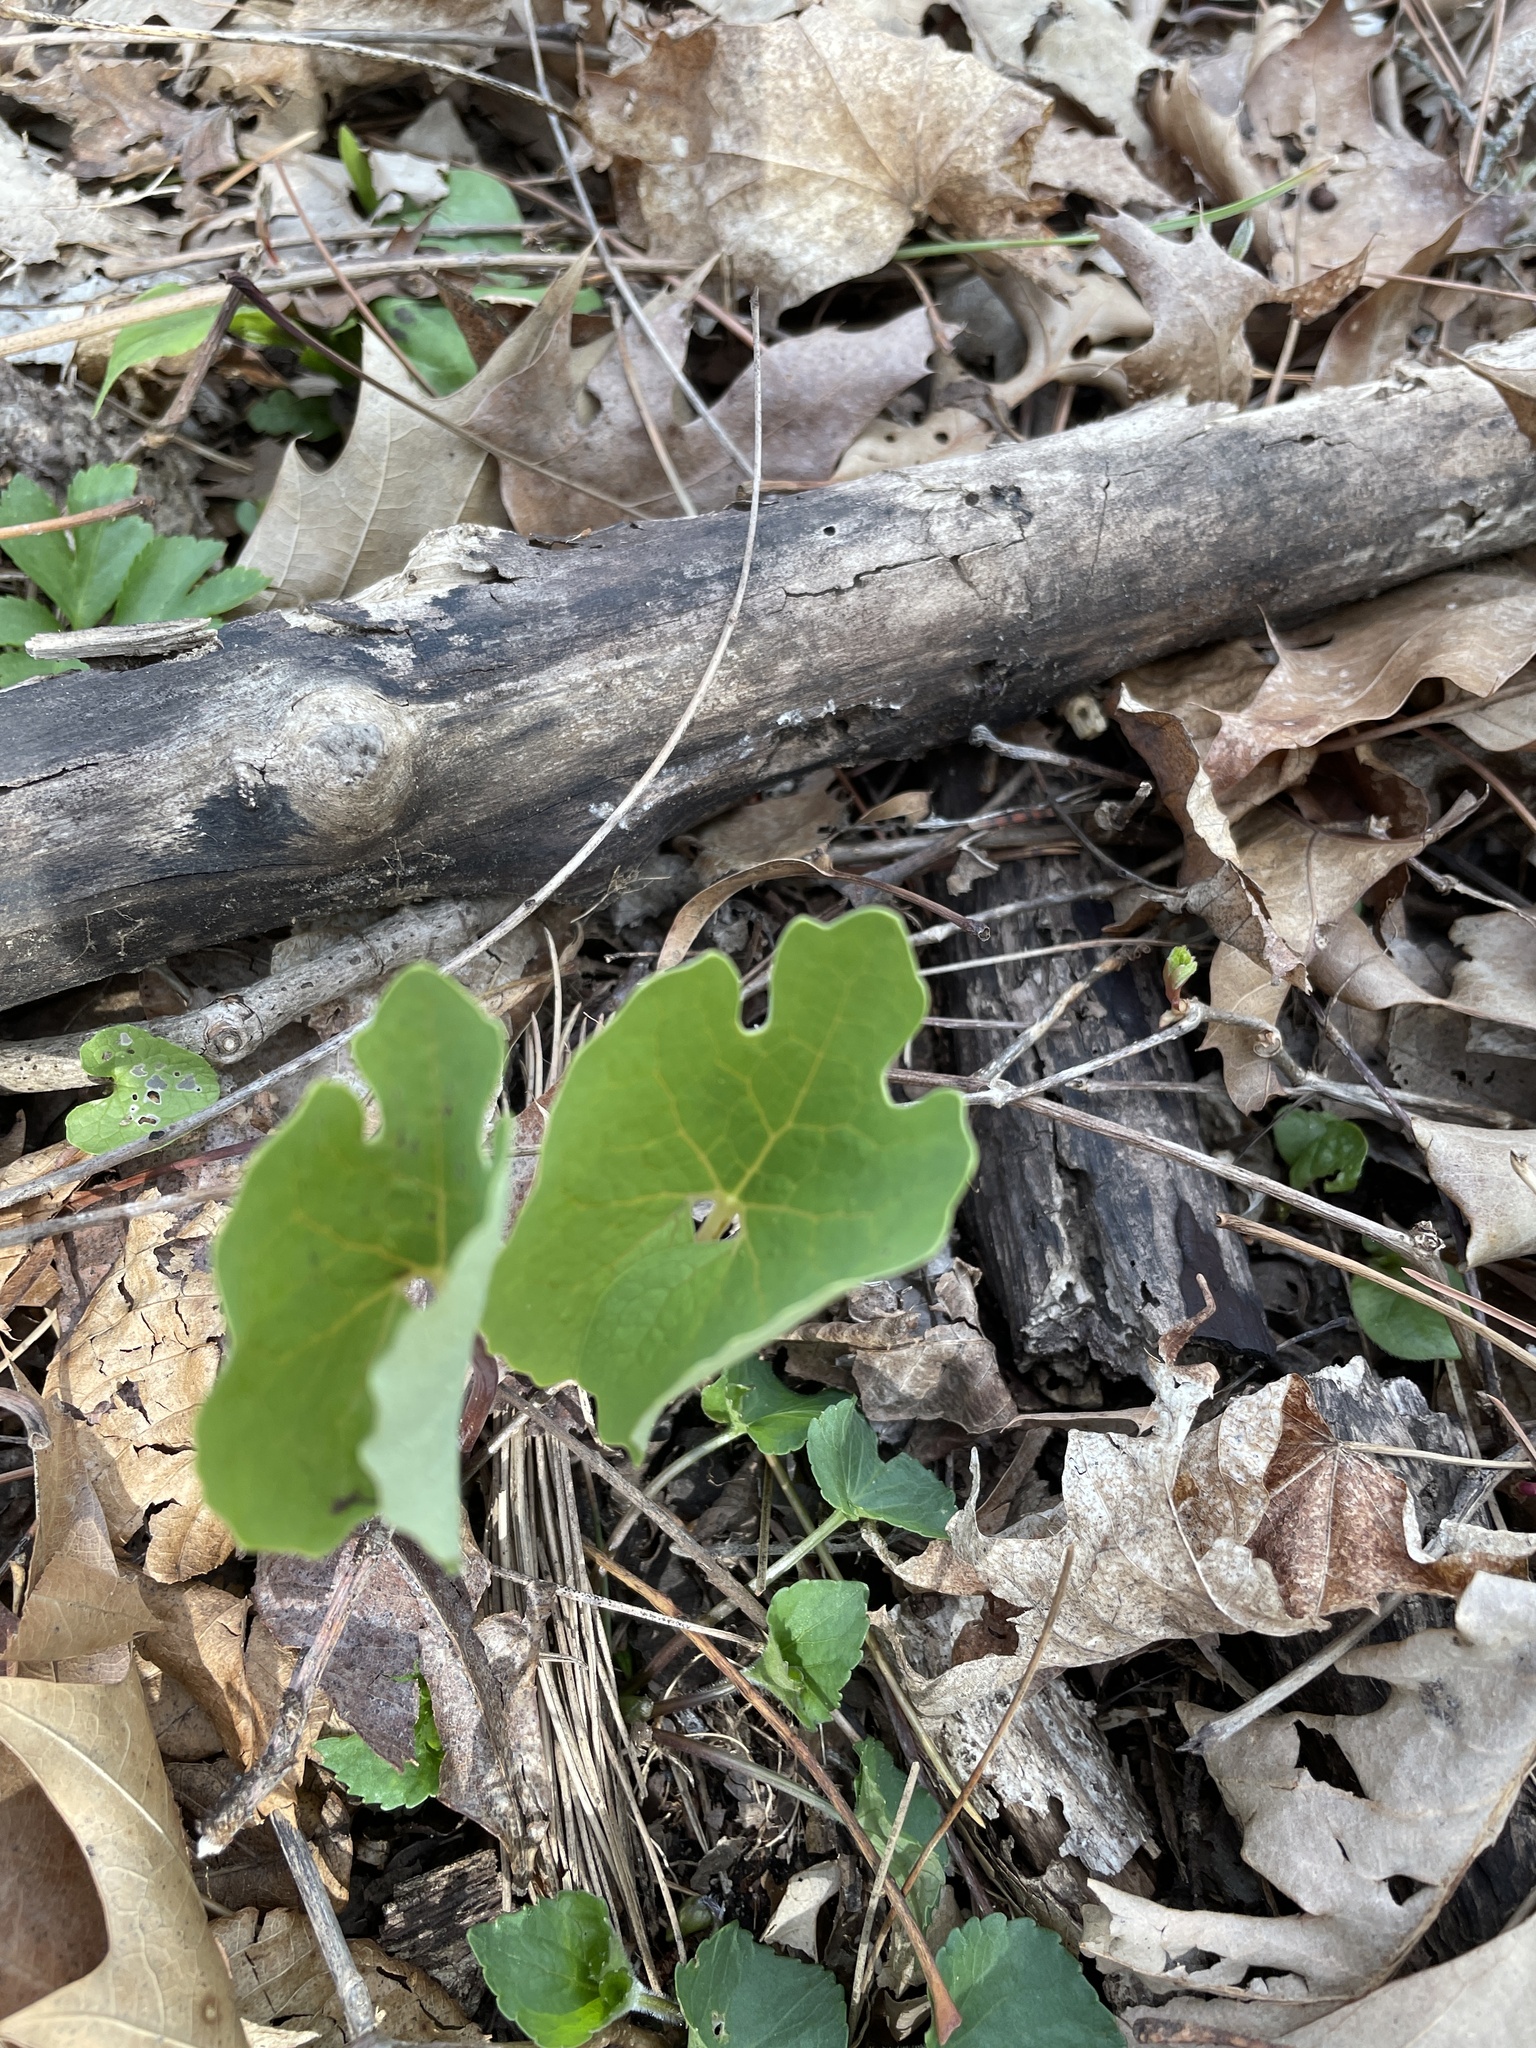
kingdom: Plantae
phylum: Tracheophyta
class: Magnoliopsida
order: Ranunculales
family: Papaveraceae
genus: Sanguinaria
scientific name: Sanguinaria canadensis
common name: Bloodroot
